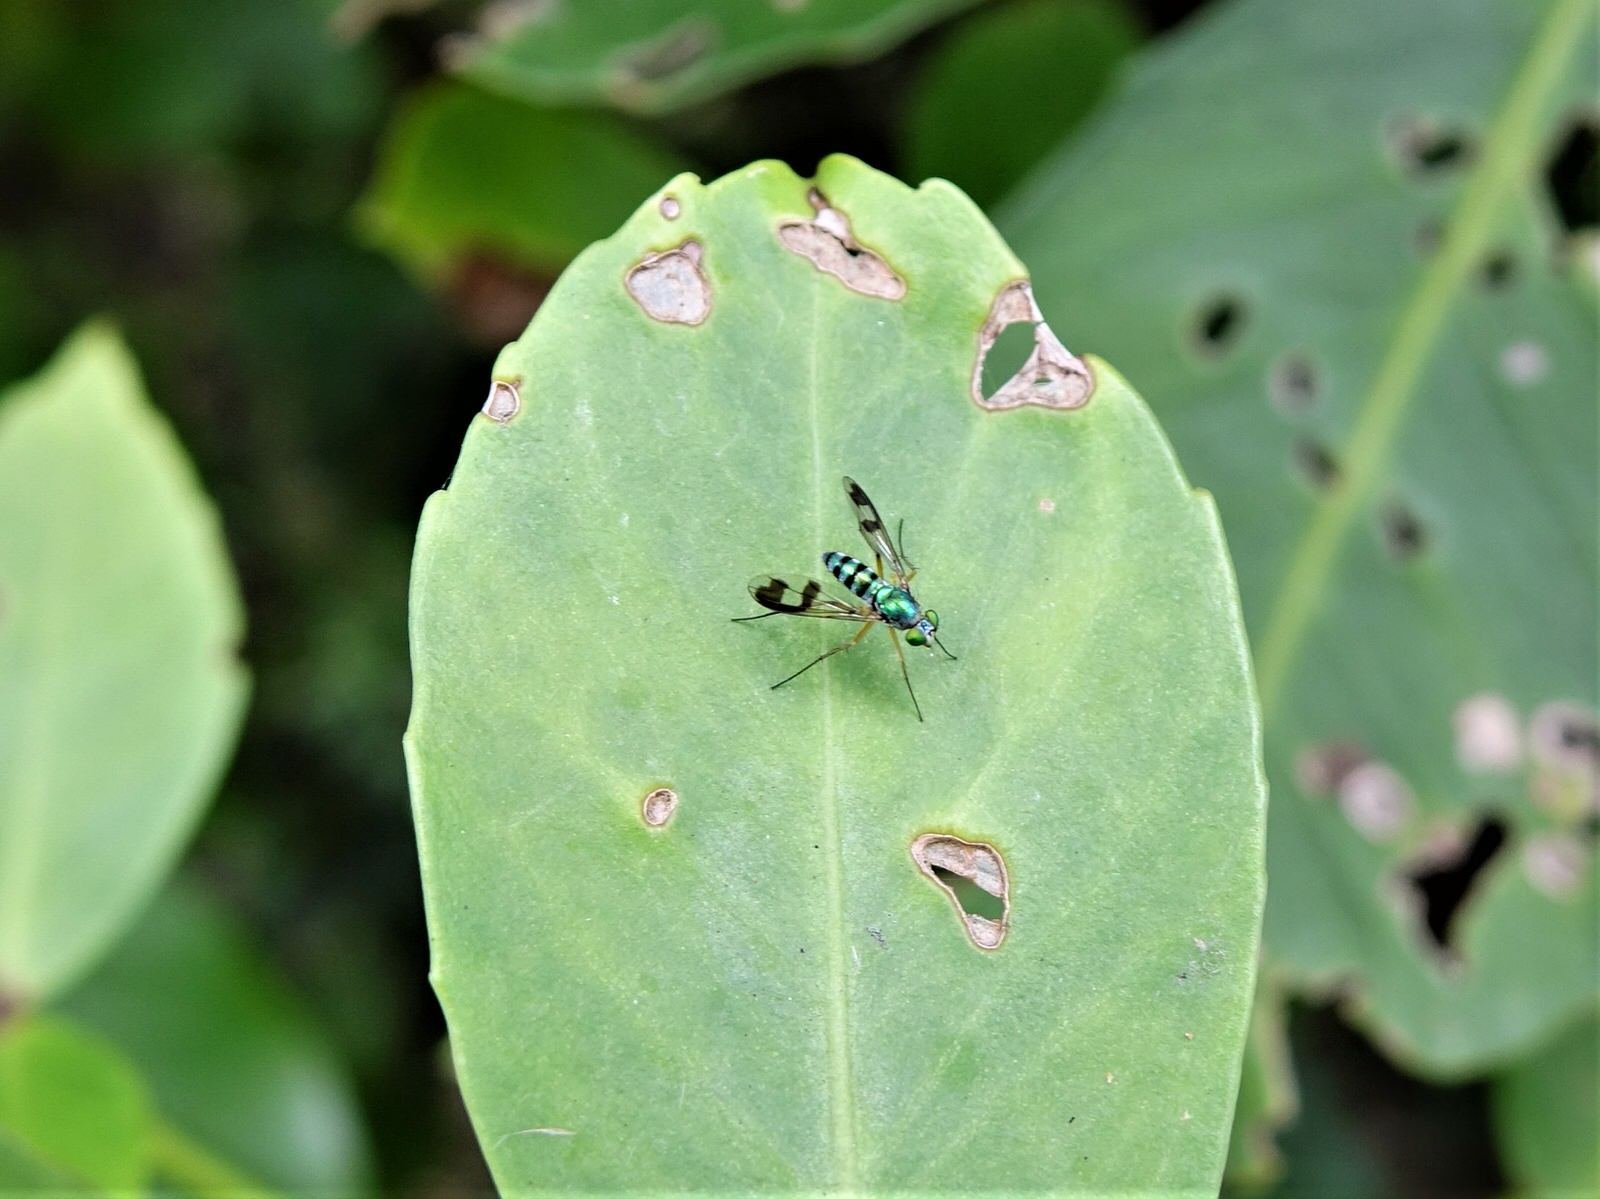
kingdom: Animalia
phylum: Arthropoda
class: Insecta
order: Diptera
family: Dolichopodidae
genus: Austrosciapus
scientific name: Austrosciapus proximus
